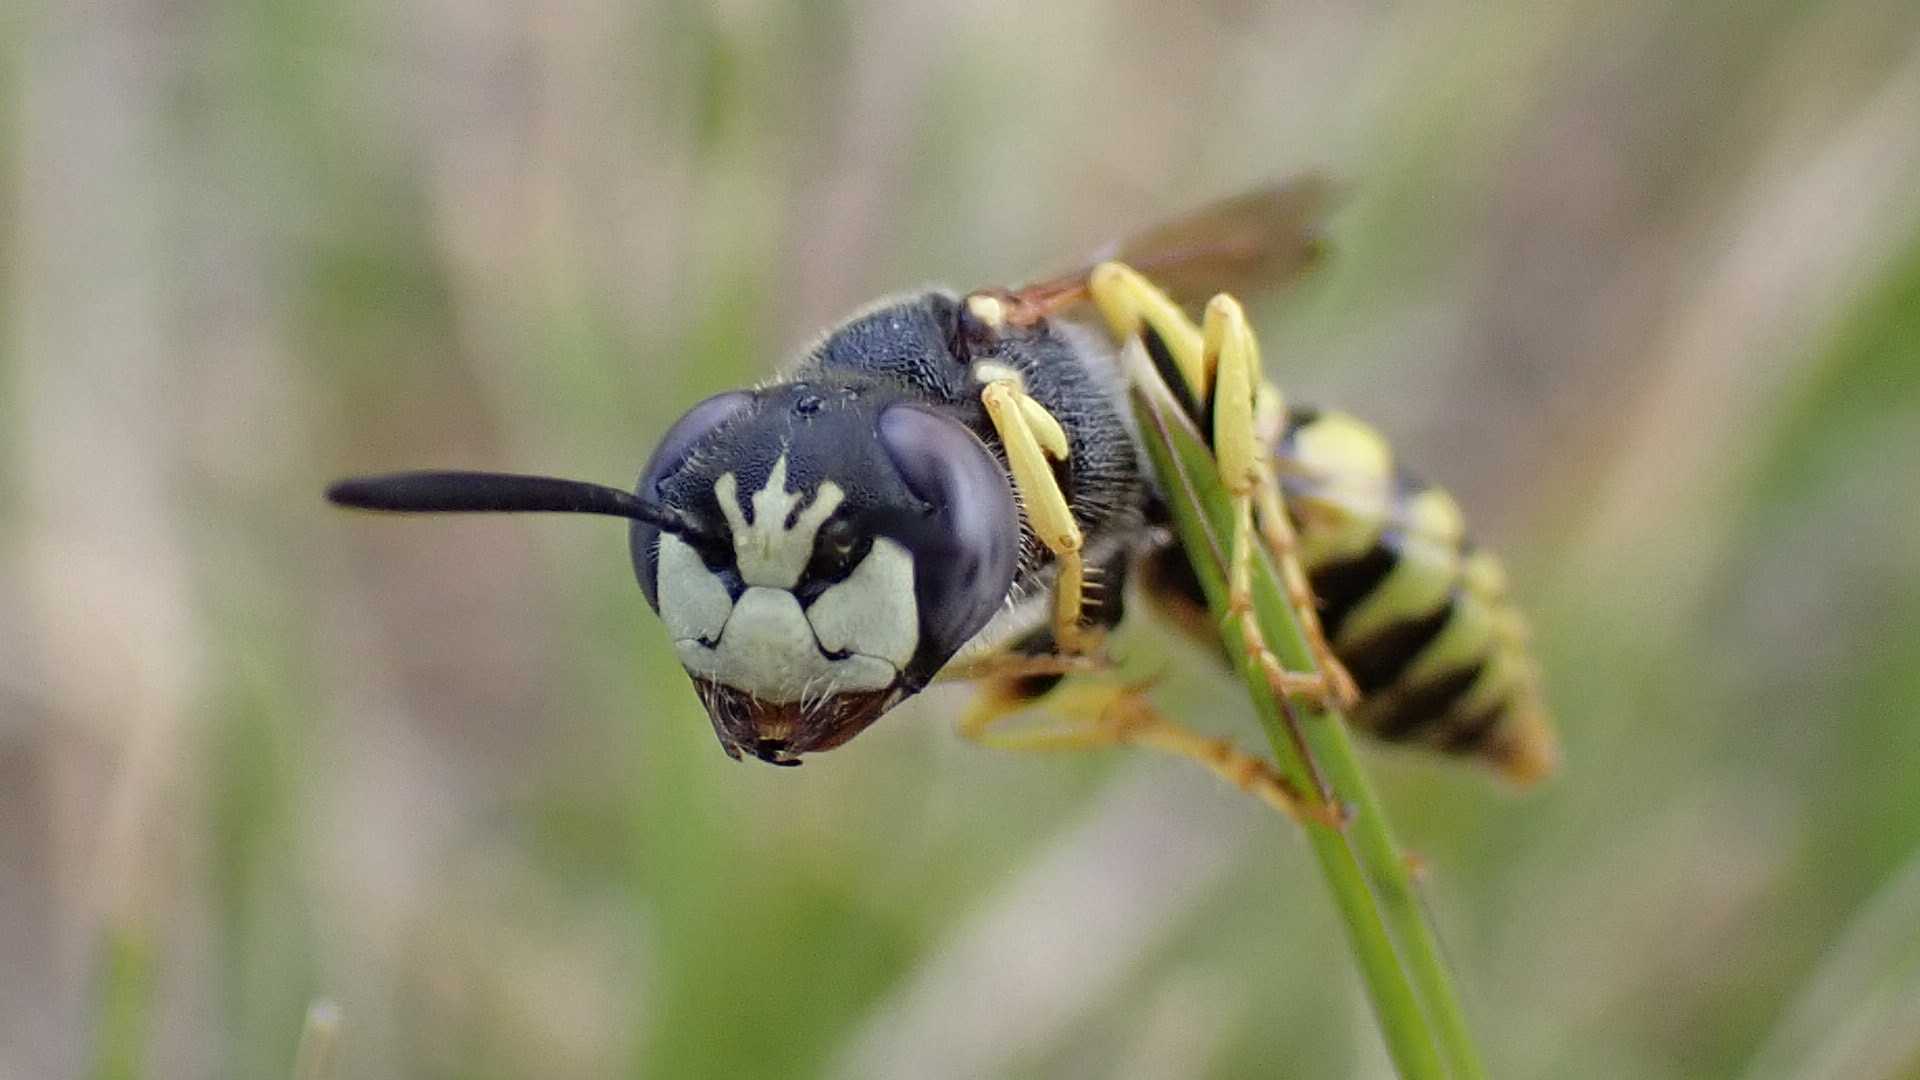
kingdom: Animalia
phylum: Arthropoda
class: Insecta
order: Hymenoptera
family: Crabronidae
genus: Philanthus
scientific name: Philanthus triangulum
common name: Bee wolf
